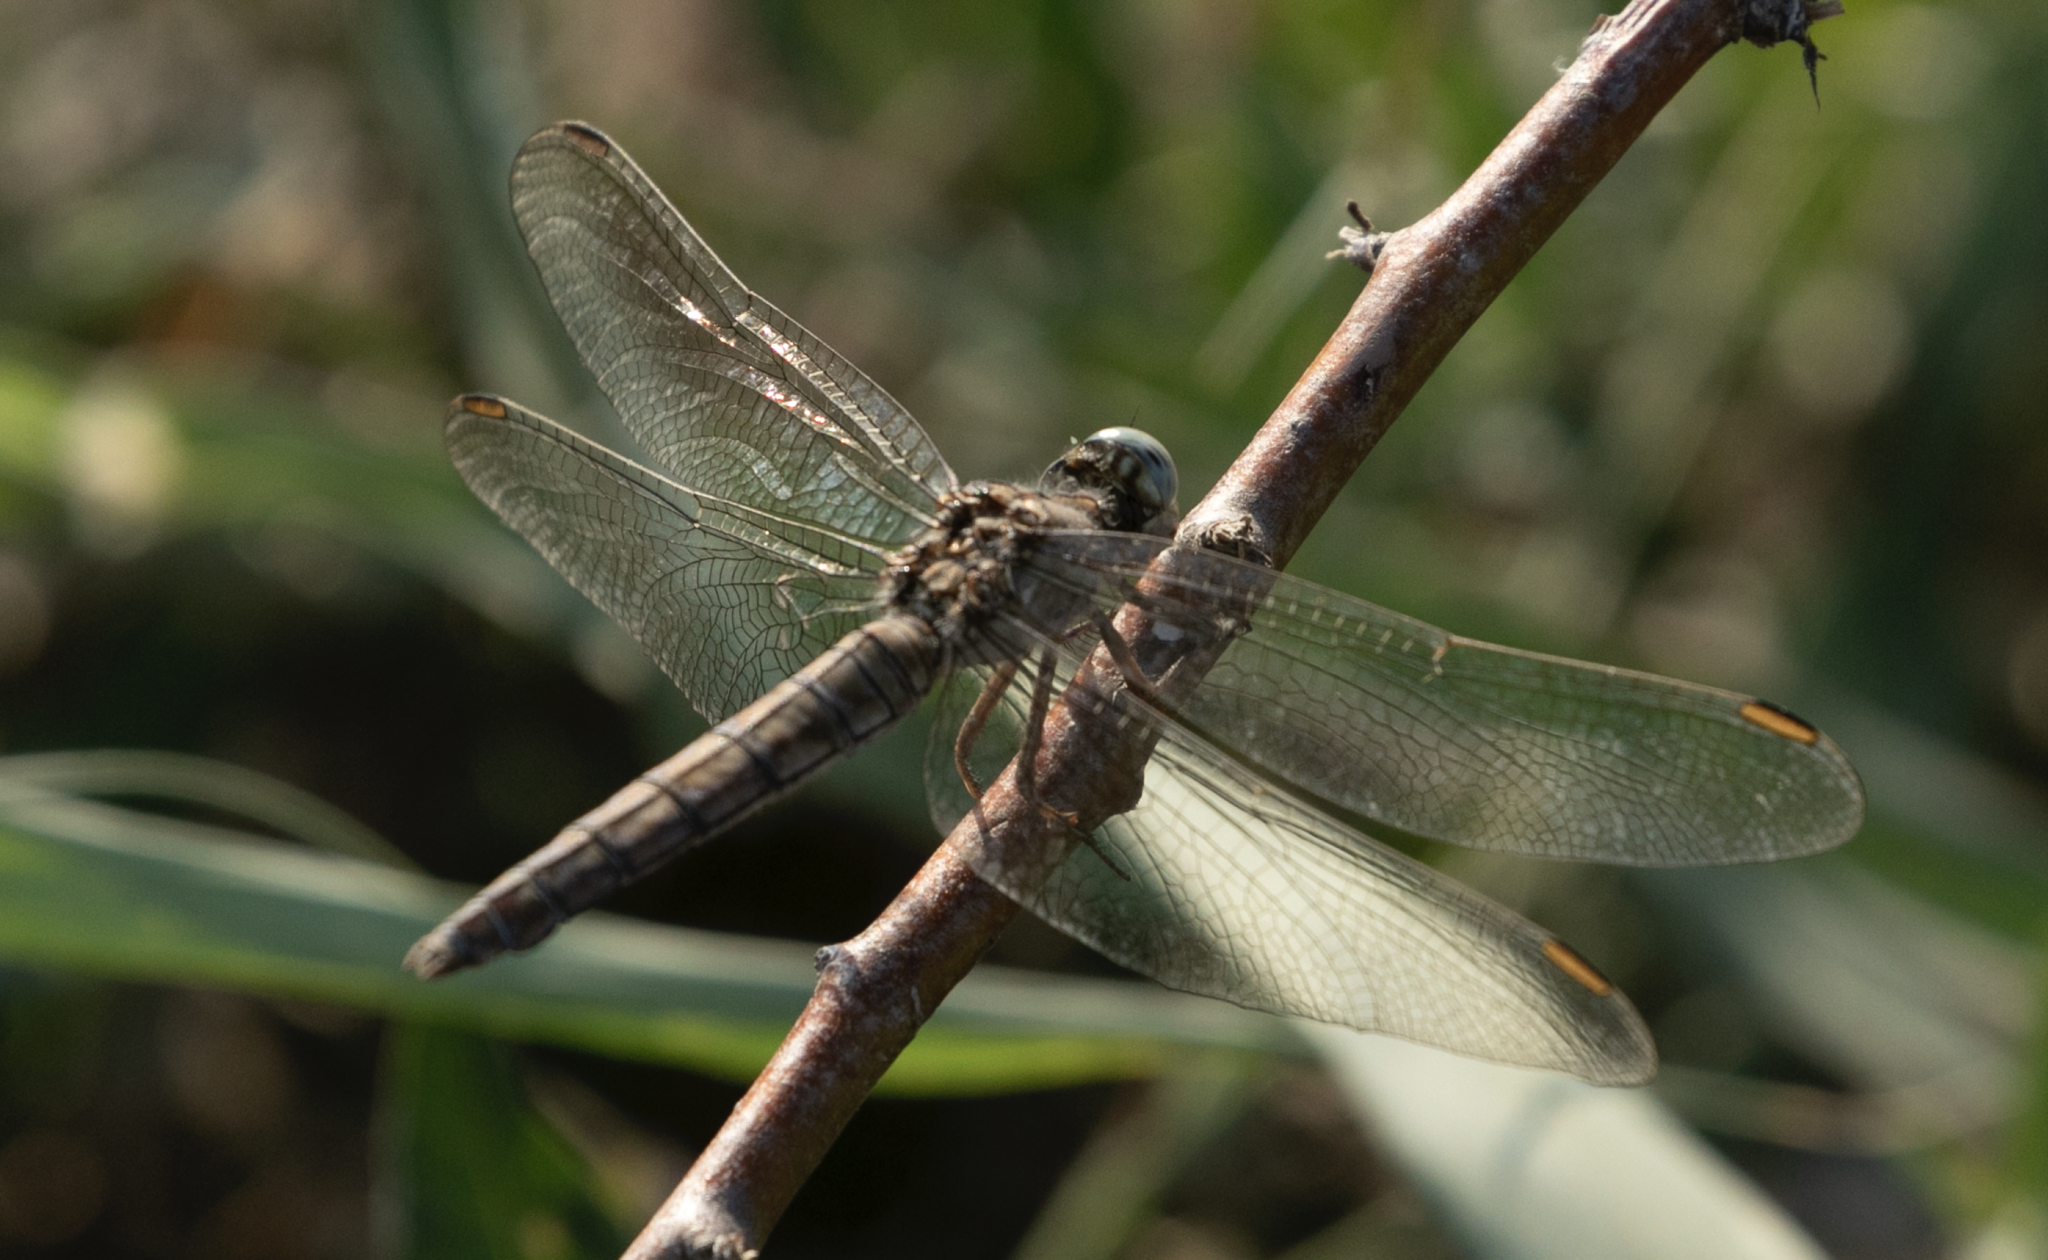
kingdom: Animalia
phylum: Arthropoda
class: Insecta
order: Odonata
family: Libellulidae
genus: Orthetrum
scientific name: Orthetrum brunneum
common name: Southern skimmer
